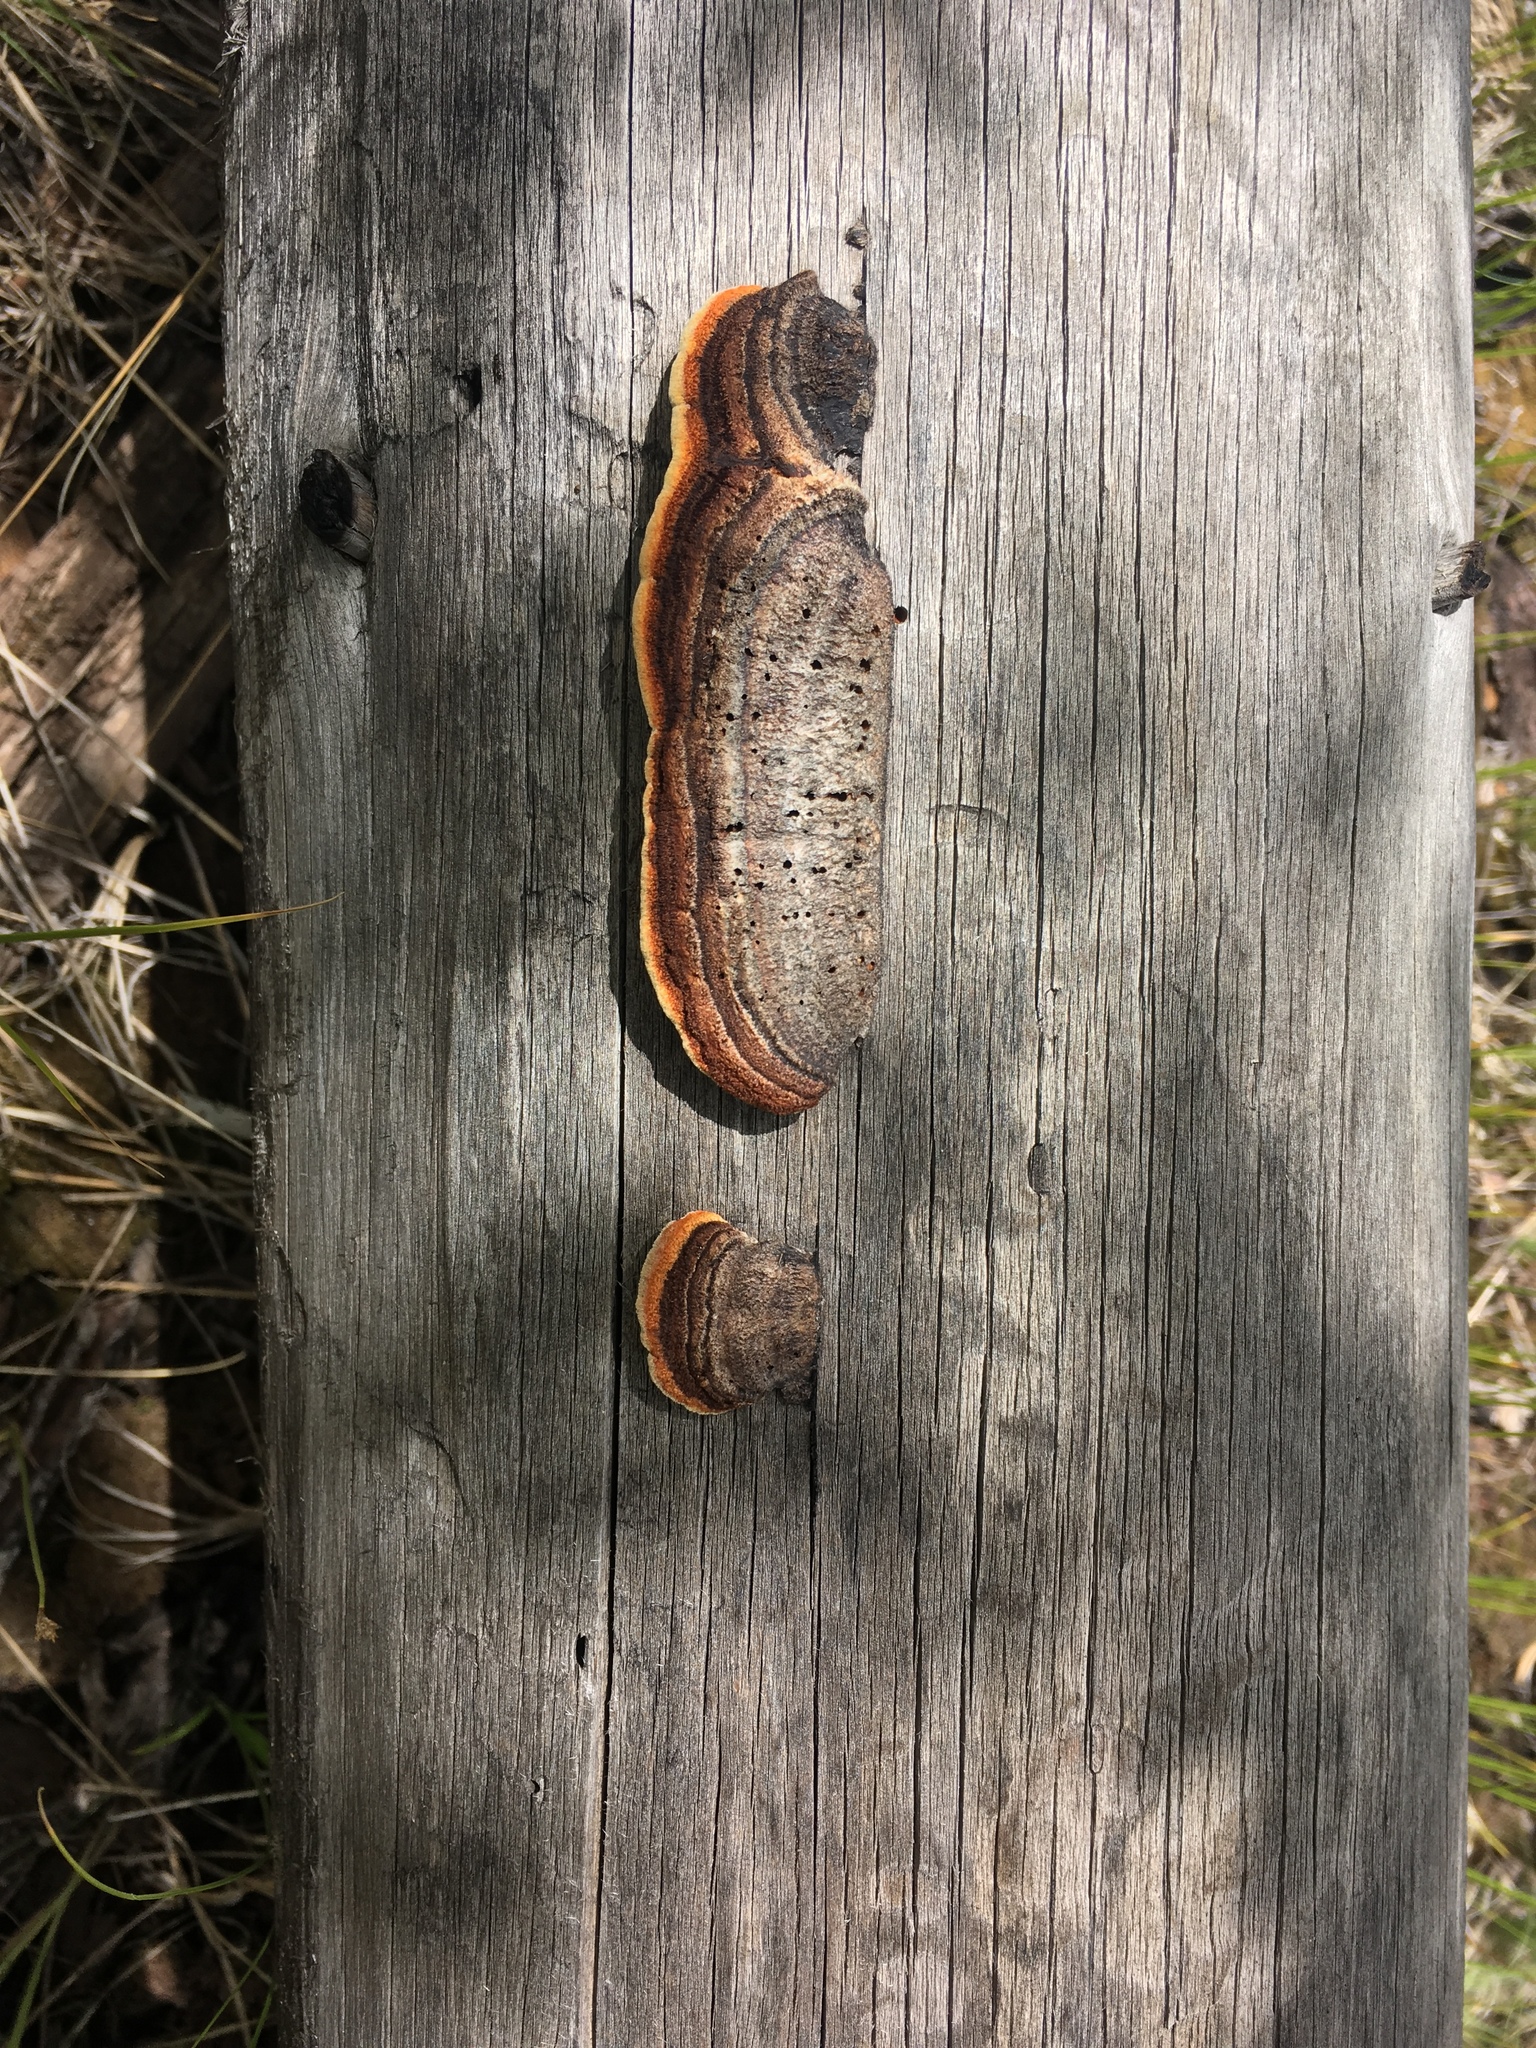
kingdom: Fungi
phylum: Basidiomycota
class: Agaricomycetes
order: Gloeophyllales
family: Gloeophyllaceae
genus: Gloeophyllum
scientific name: Gloeophyllum sepiarium
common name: Conifer mazegill
